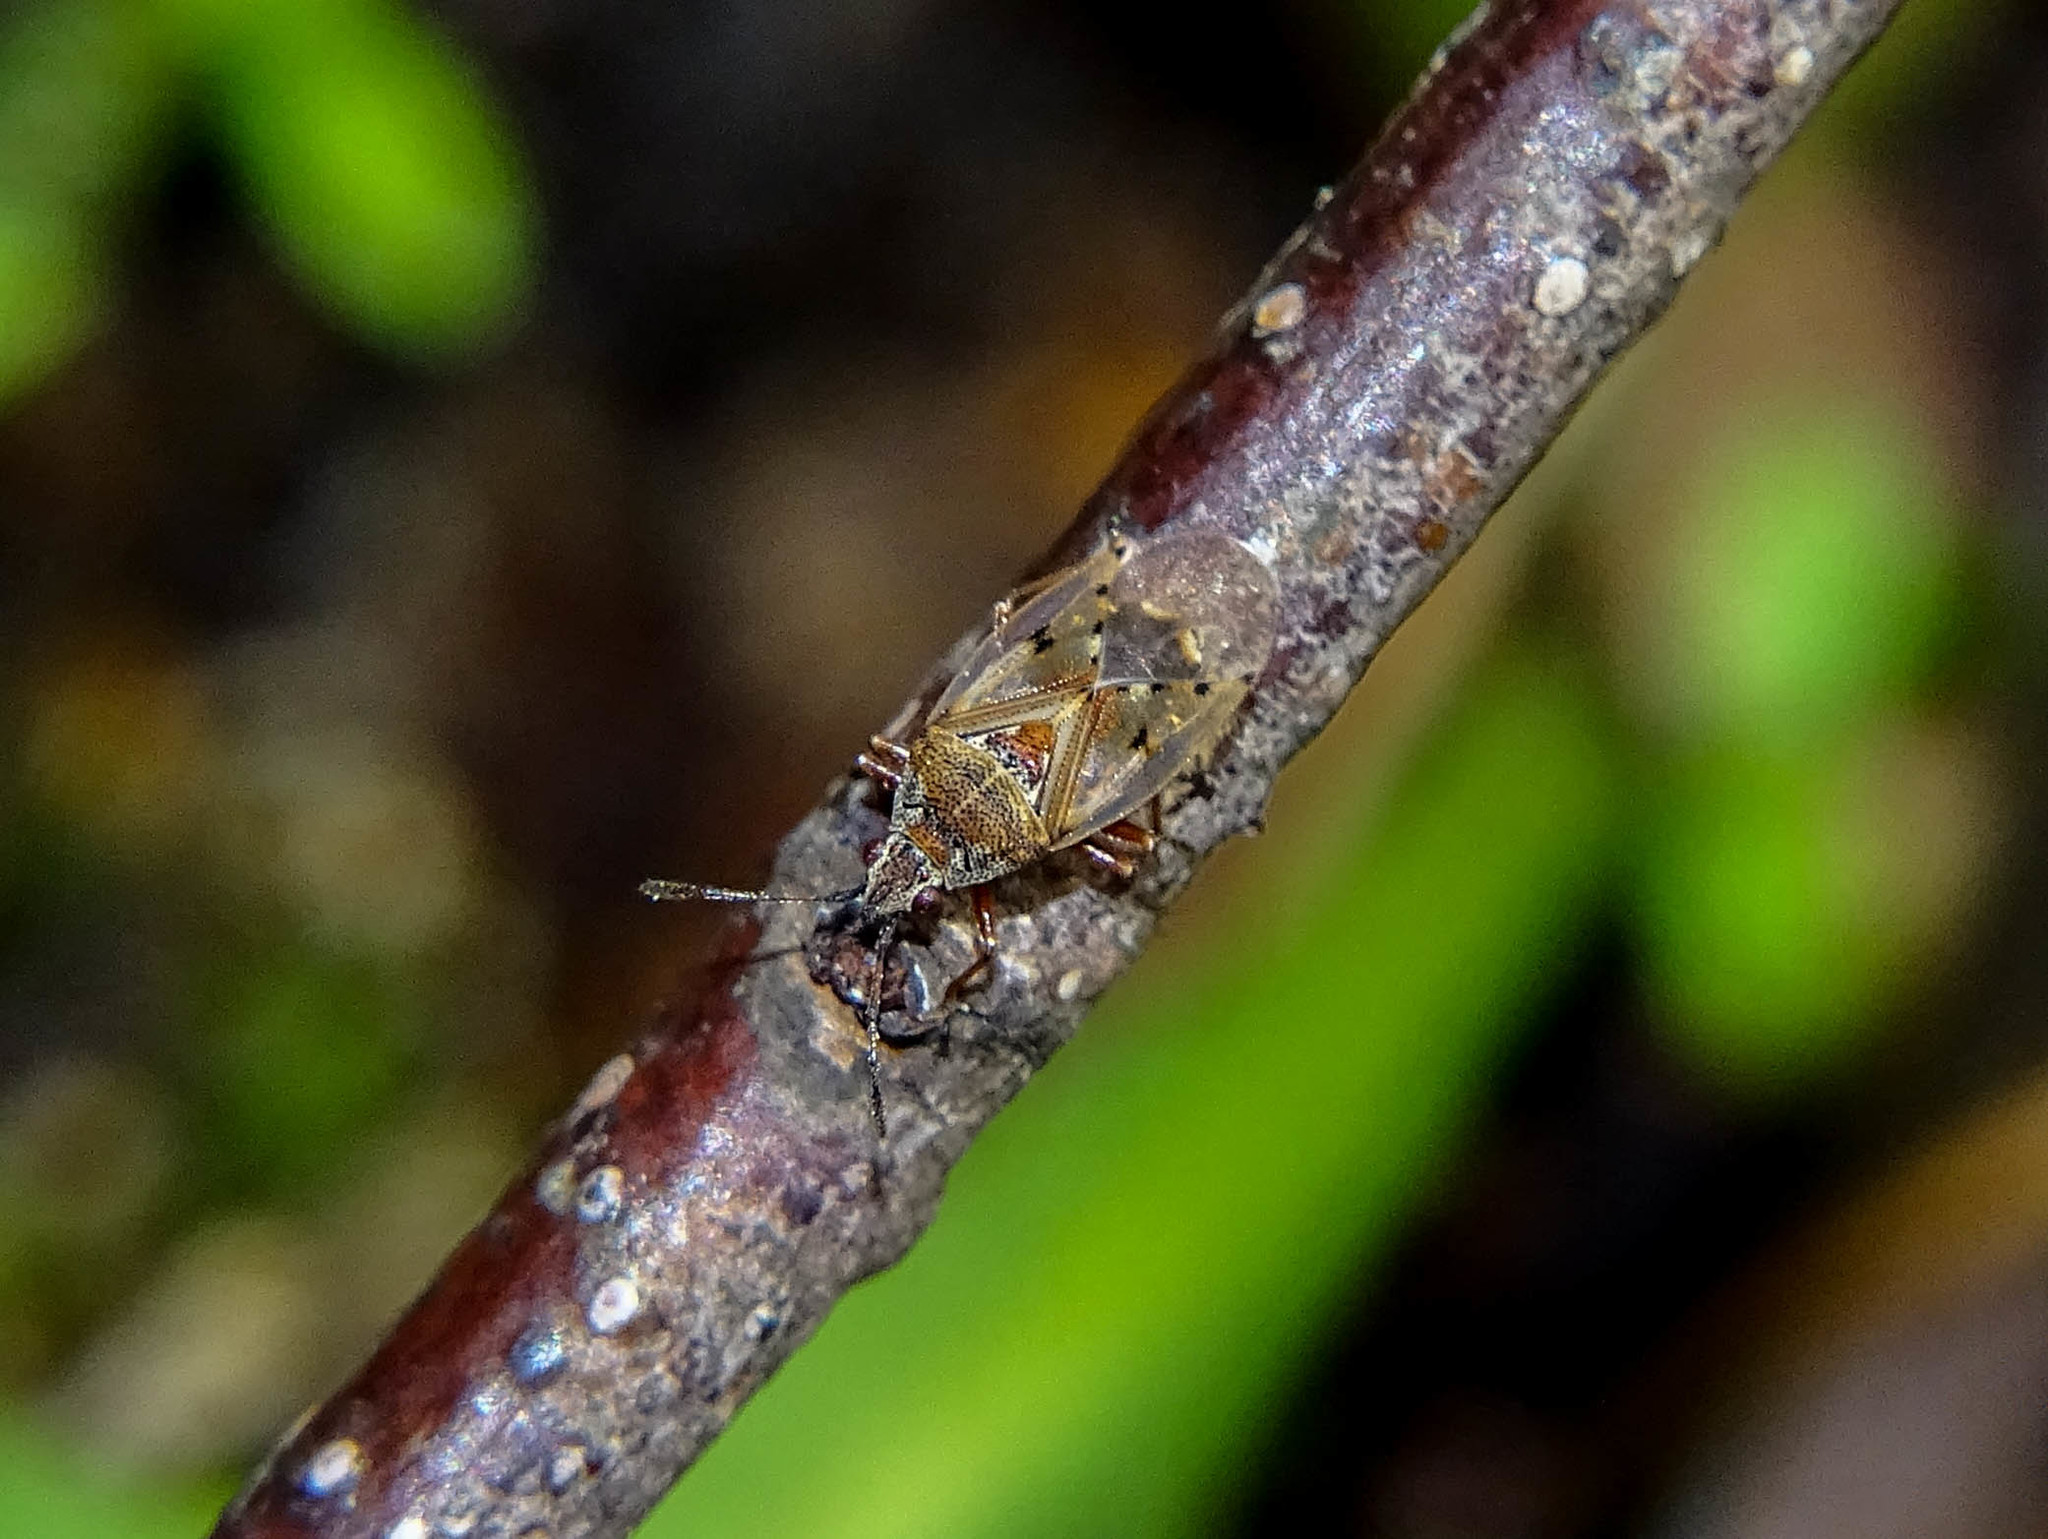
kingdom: Animalia
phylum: Arthropoda
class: Insecta
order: Hemiptera
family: Lygaeidae
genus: Kleidocerys
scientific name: Kleidocerys resedae
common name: Birch catkin bug
